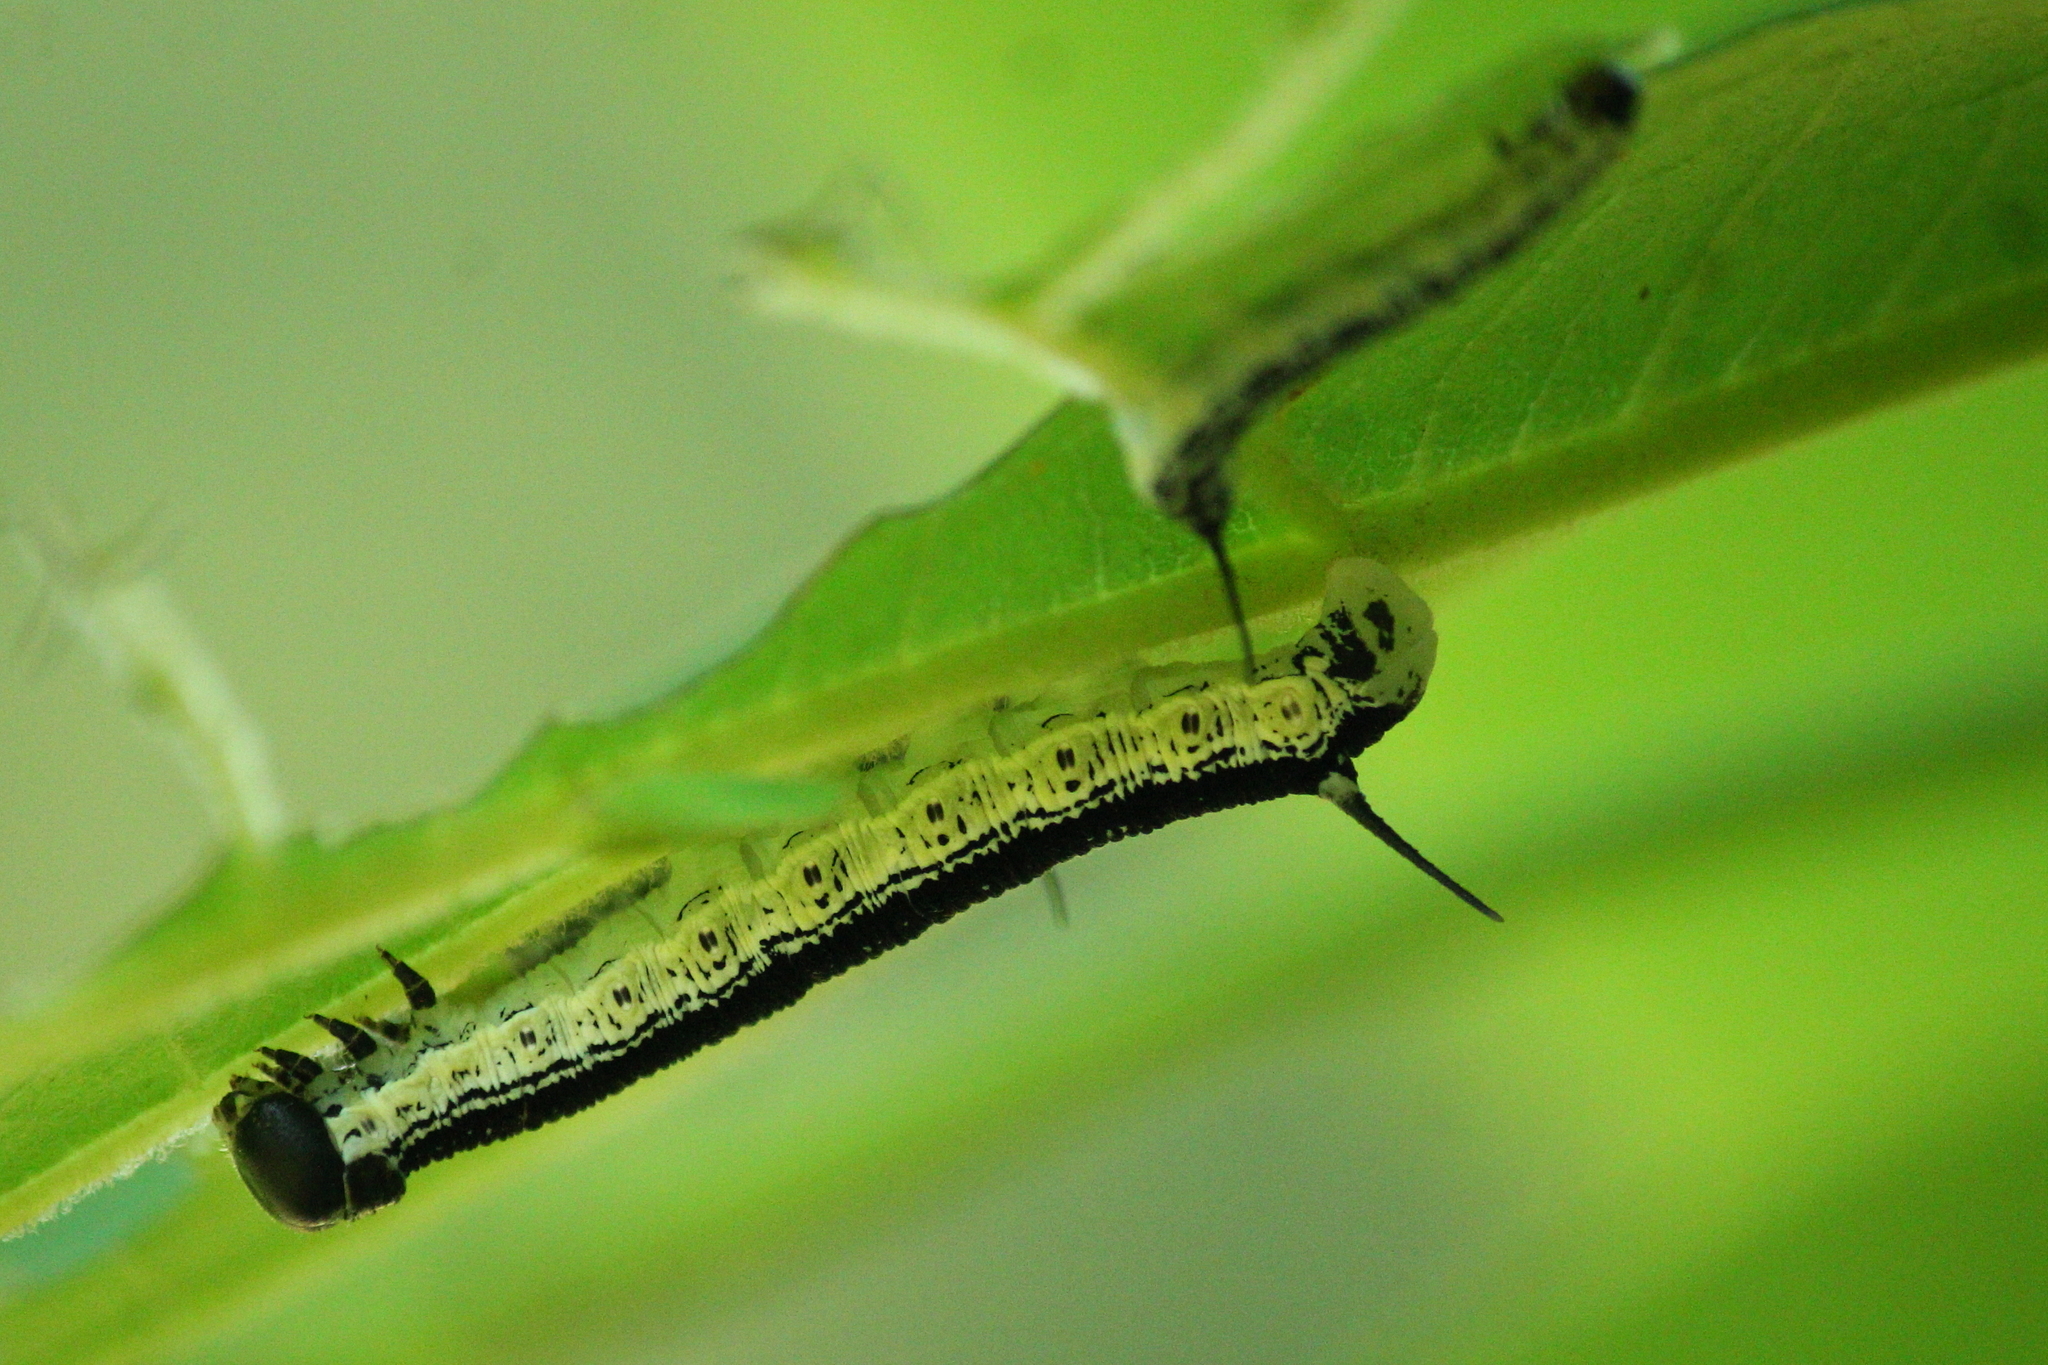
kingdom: Animalia
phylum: Arthropoda
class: Insecta
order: Lepidoptera
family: Sphingidae
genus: Ceratomia
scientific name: Ceratomia catalpae
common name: Catalpa hornworm
